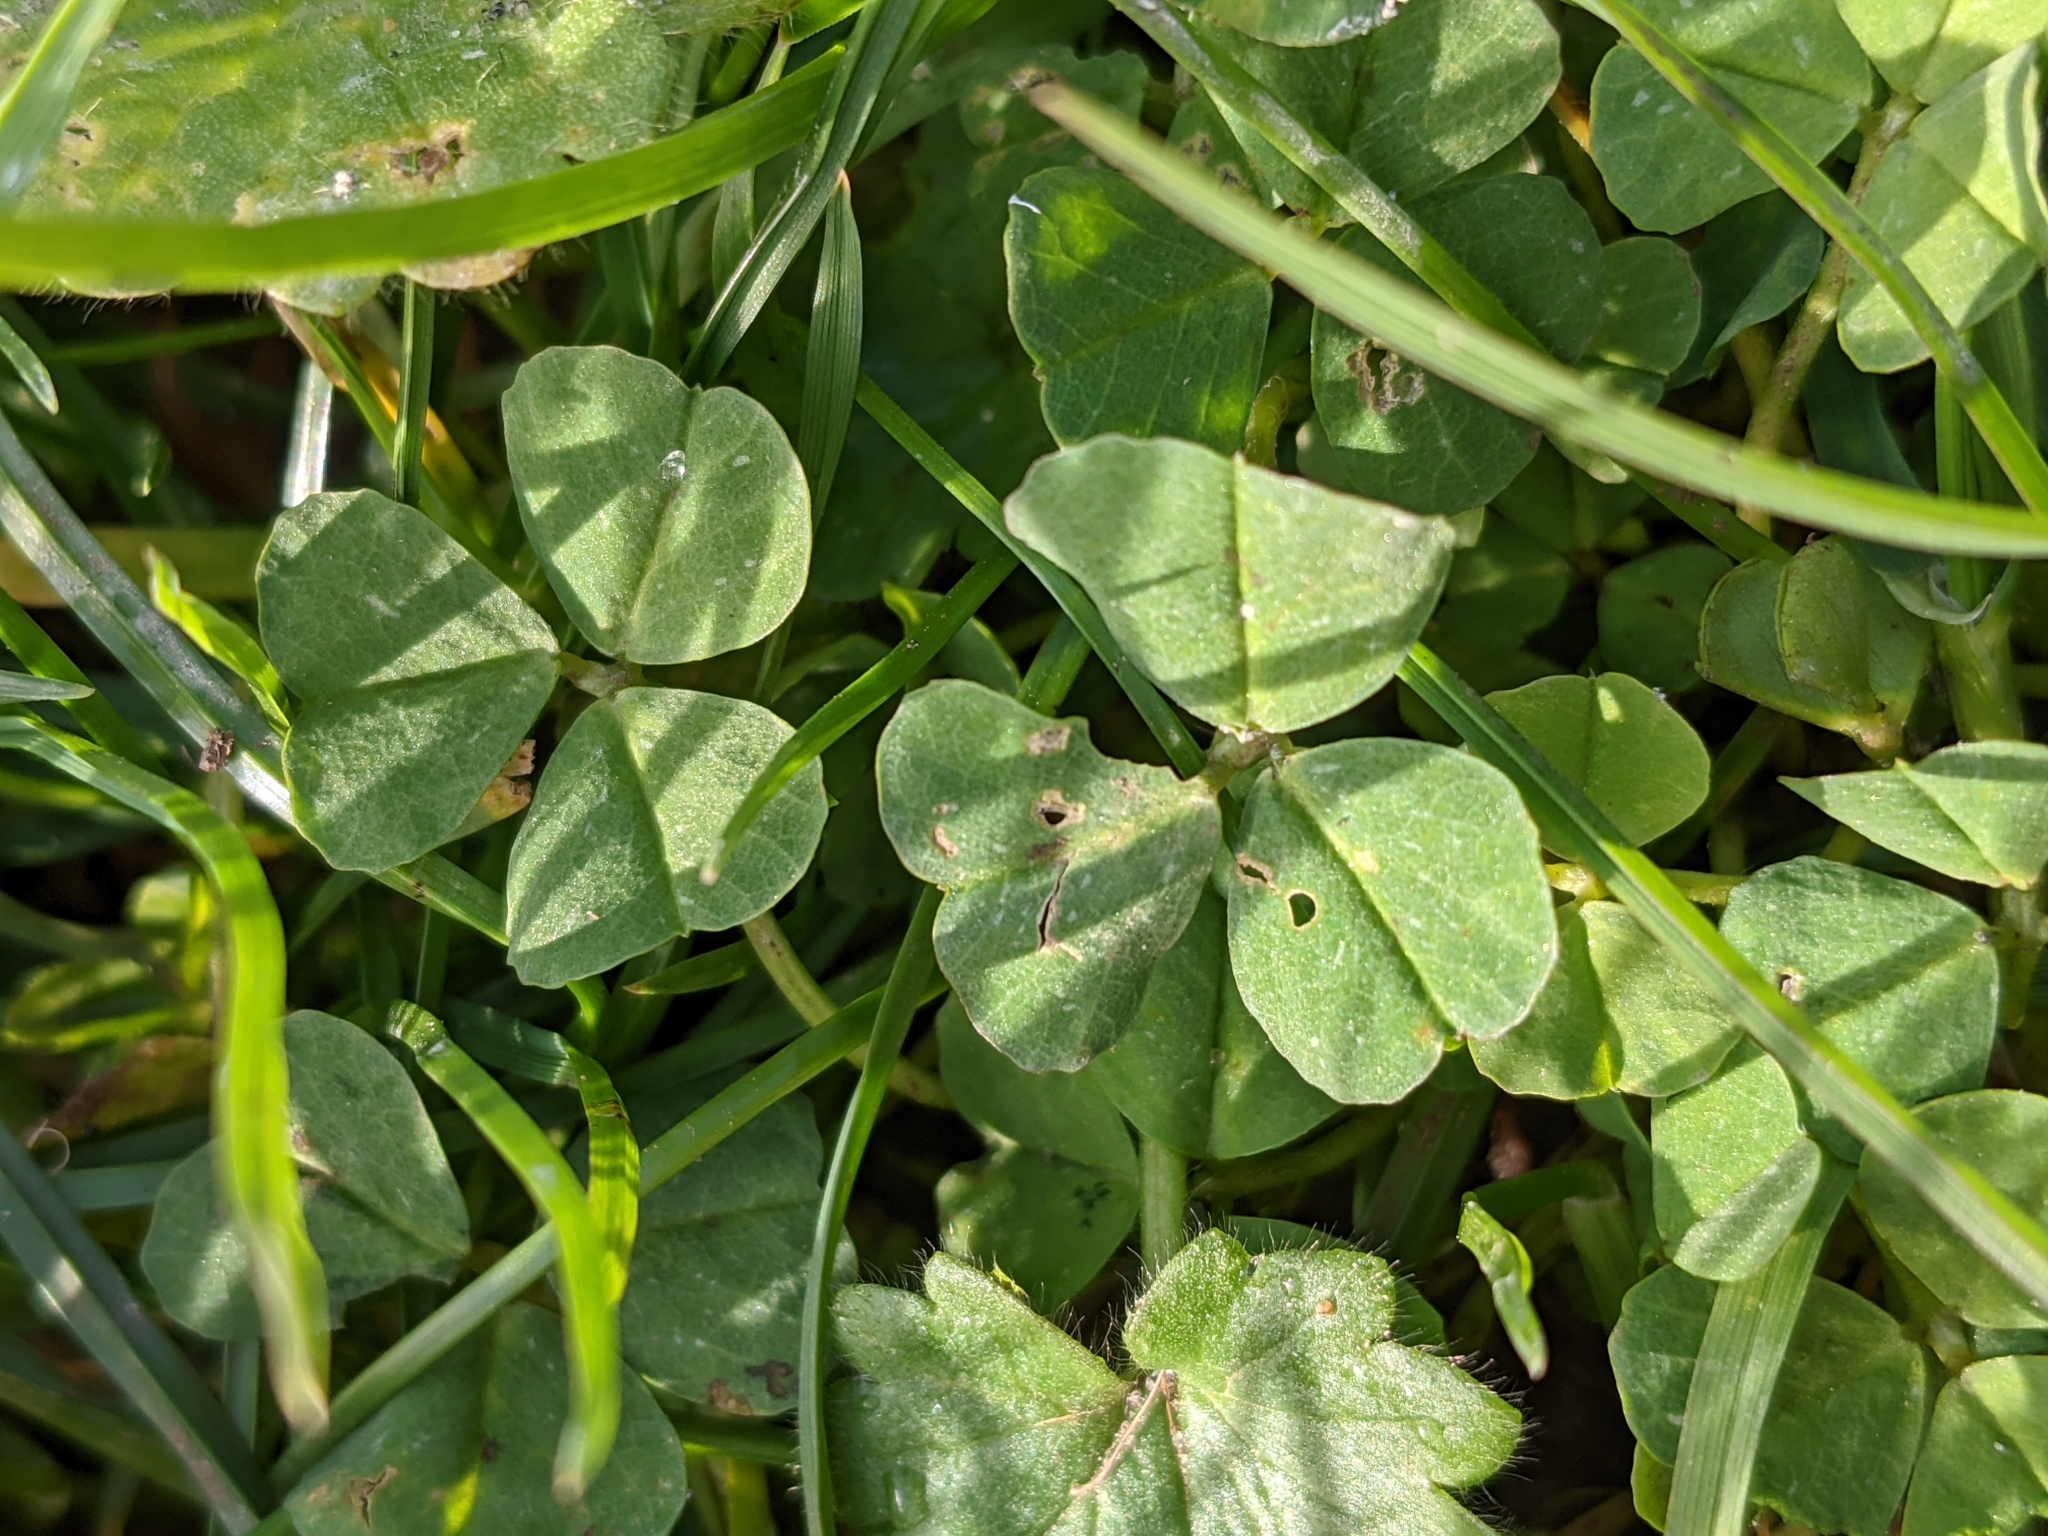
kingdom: Plantae
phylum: Tracheophyta
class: Magnoliopsida
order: Fabales
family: Fabaceae
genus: Medicago
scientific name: Medicago arabica
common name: Spotted medick
